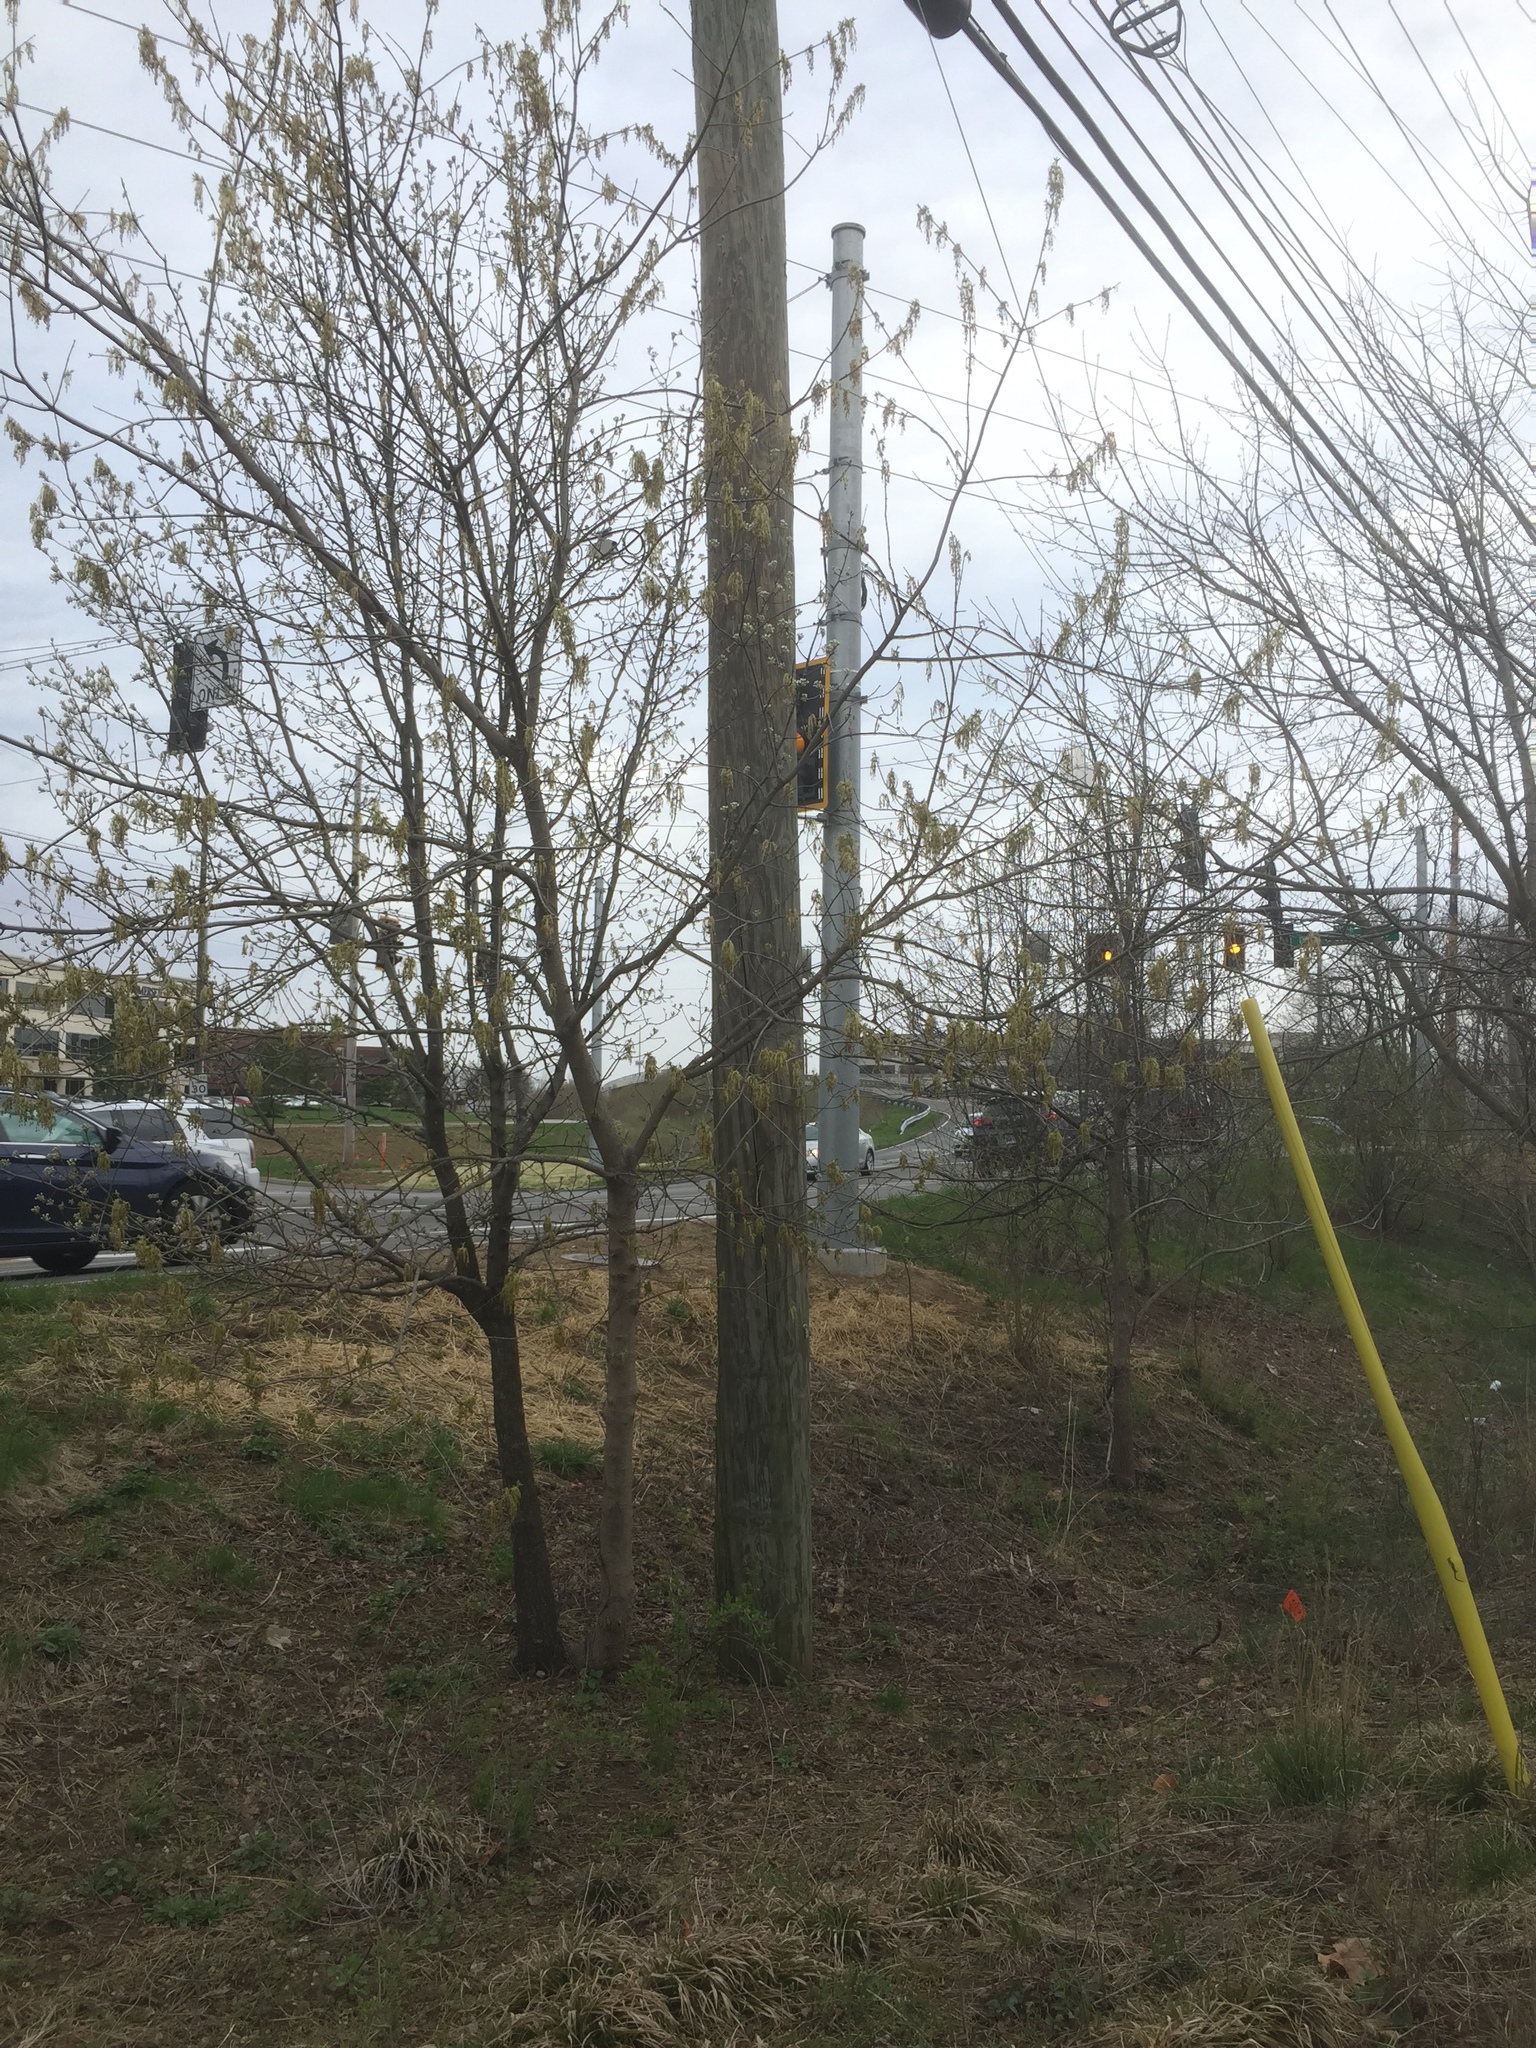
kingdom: Plantae
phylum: Tracheophyta
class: Magnoliopsida
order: Sapindales
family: Sapindaceae
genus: Acer
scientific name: Acer negundo
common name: Ashleaf maple
